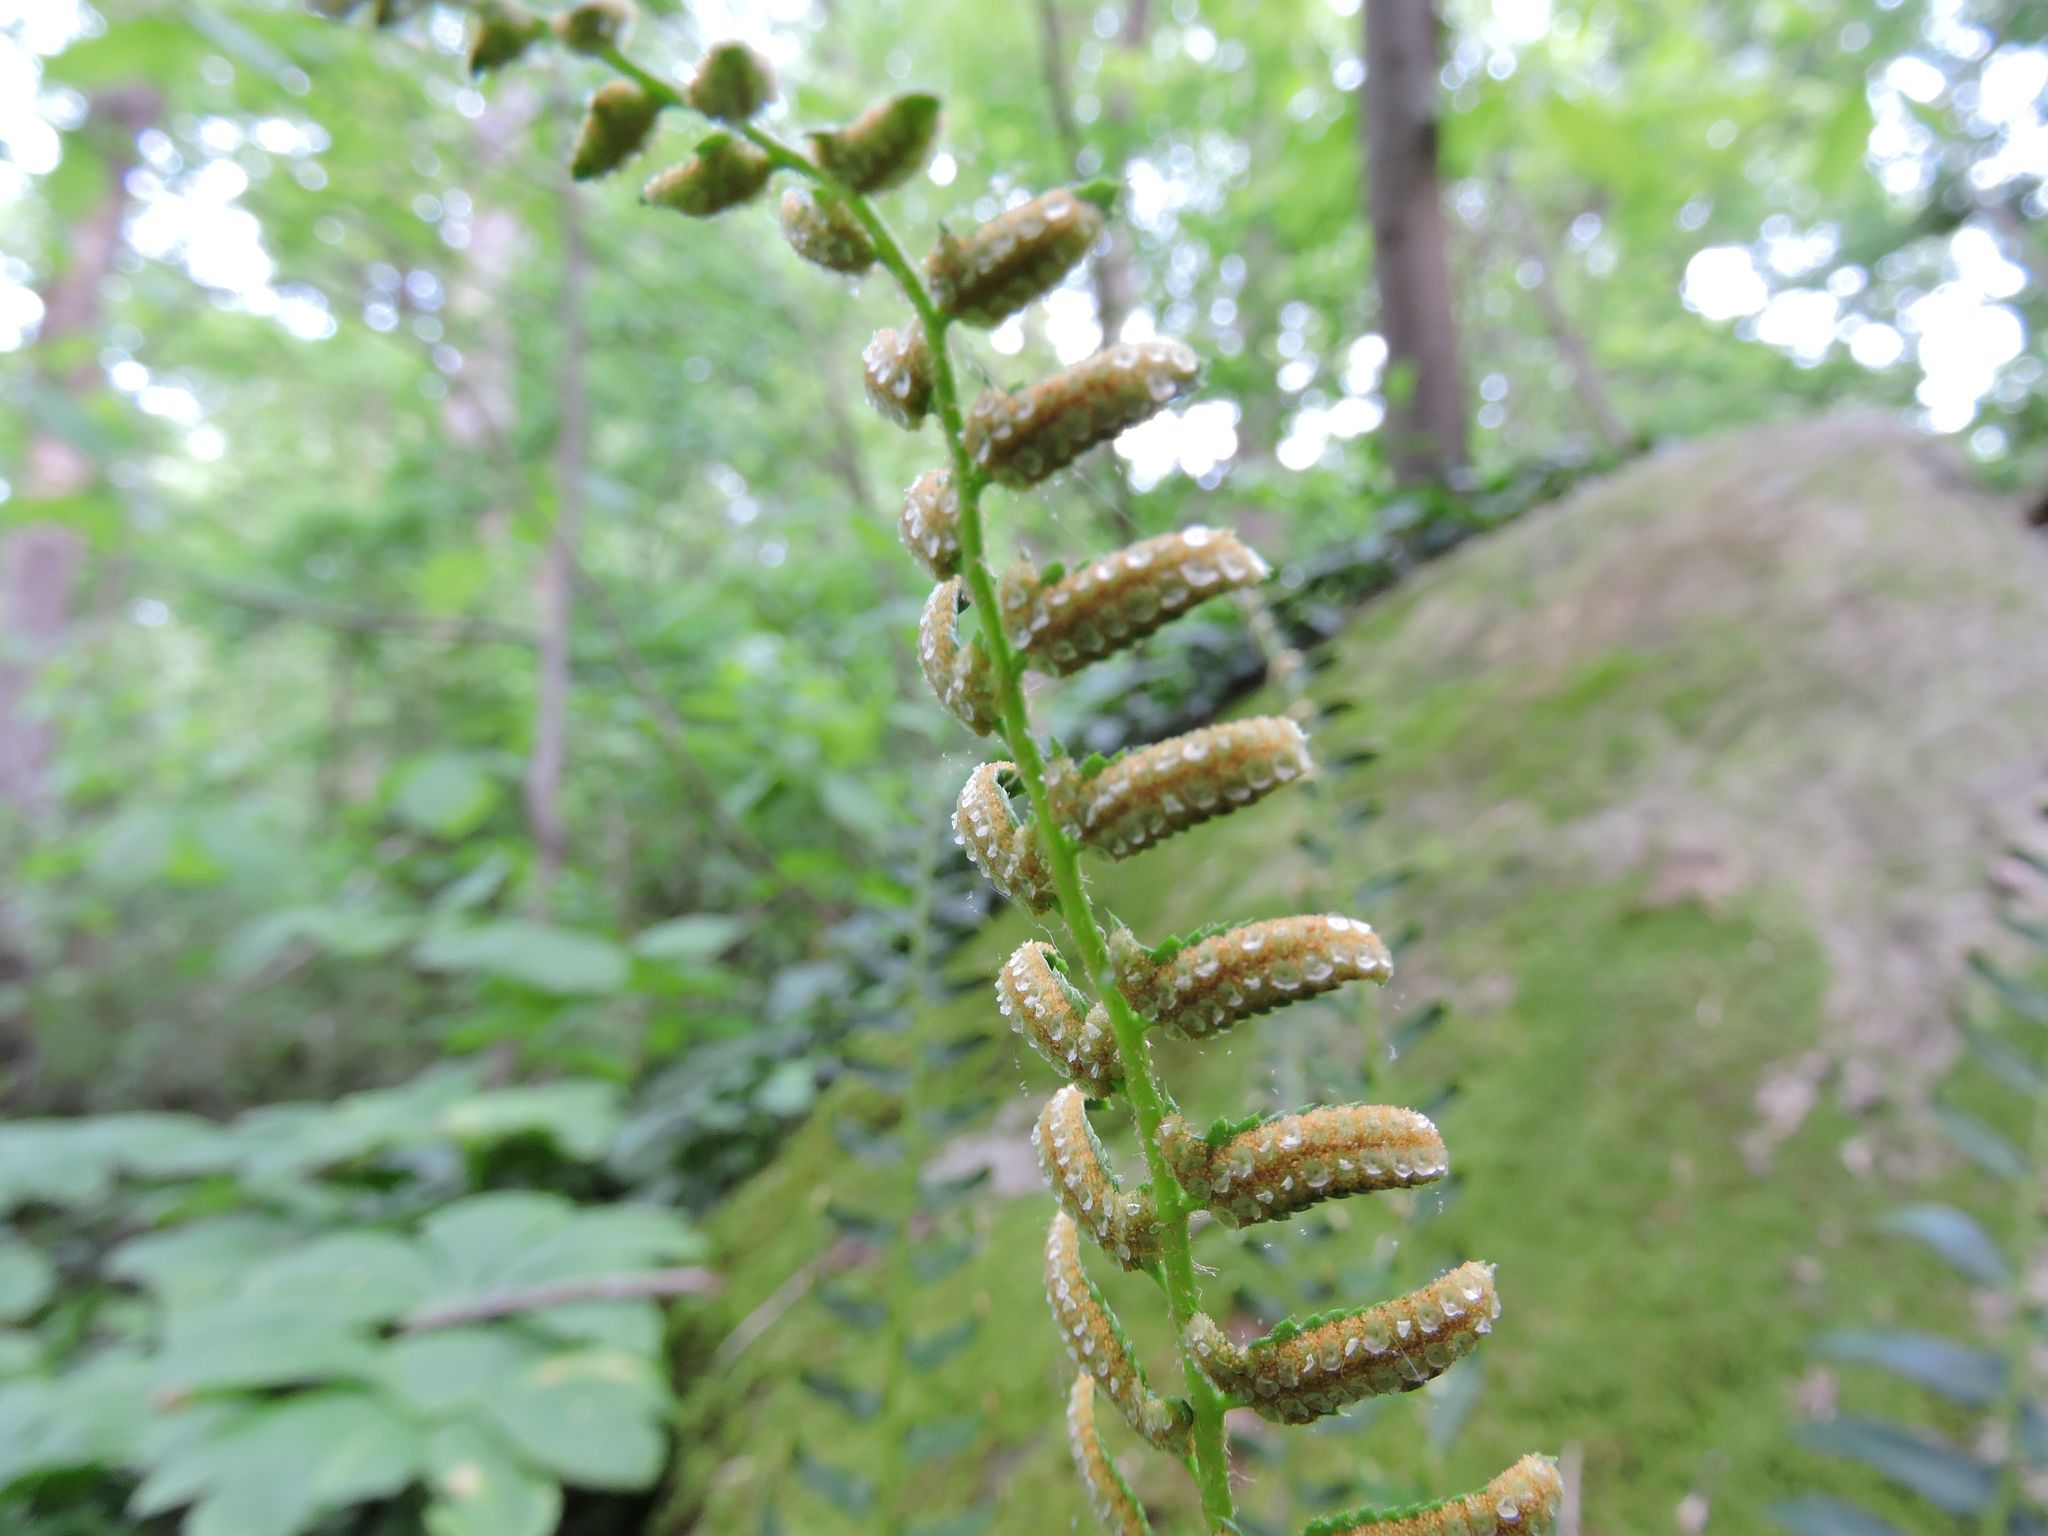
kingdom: Plantae
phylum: Tracheophyta
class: Polypodiopsida
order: Polypodiales
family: Dryopteridaceae
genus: Polystichum
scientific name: Polystichum acrostichoides
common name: Christmas fern
